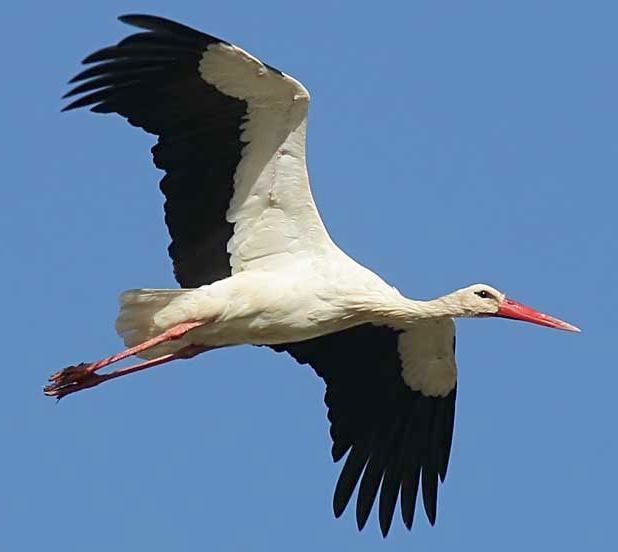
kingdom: Animalia
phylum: Chordata
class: Aves
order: Ciconiiformes
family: Ciconiidae
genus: Ciconia
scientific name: Ciconia ciconia
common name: White stork
